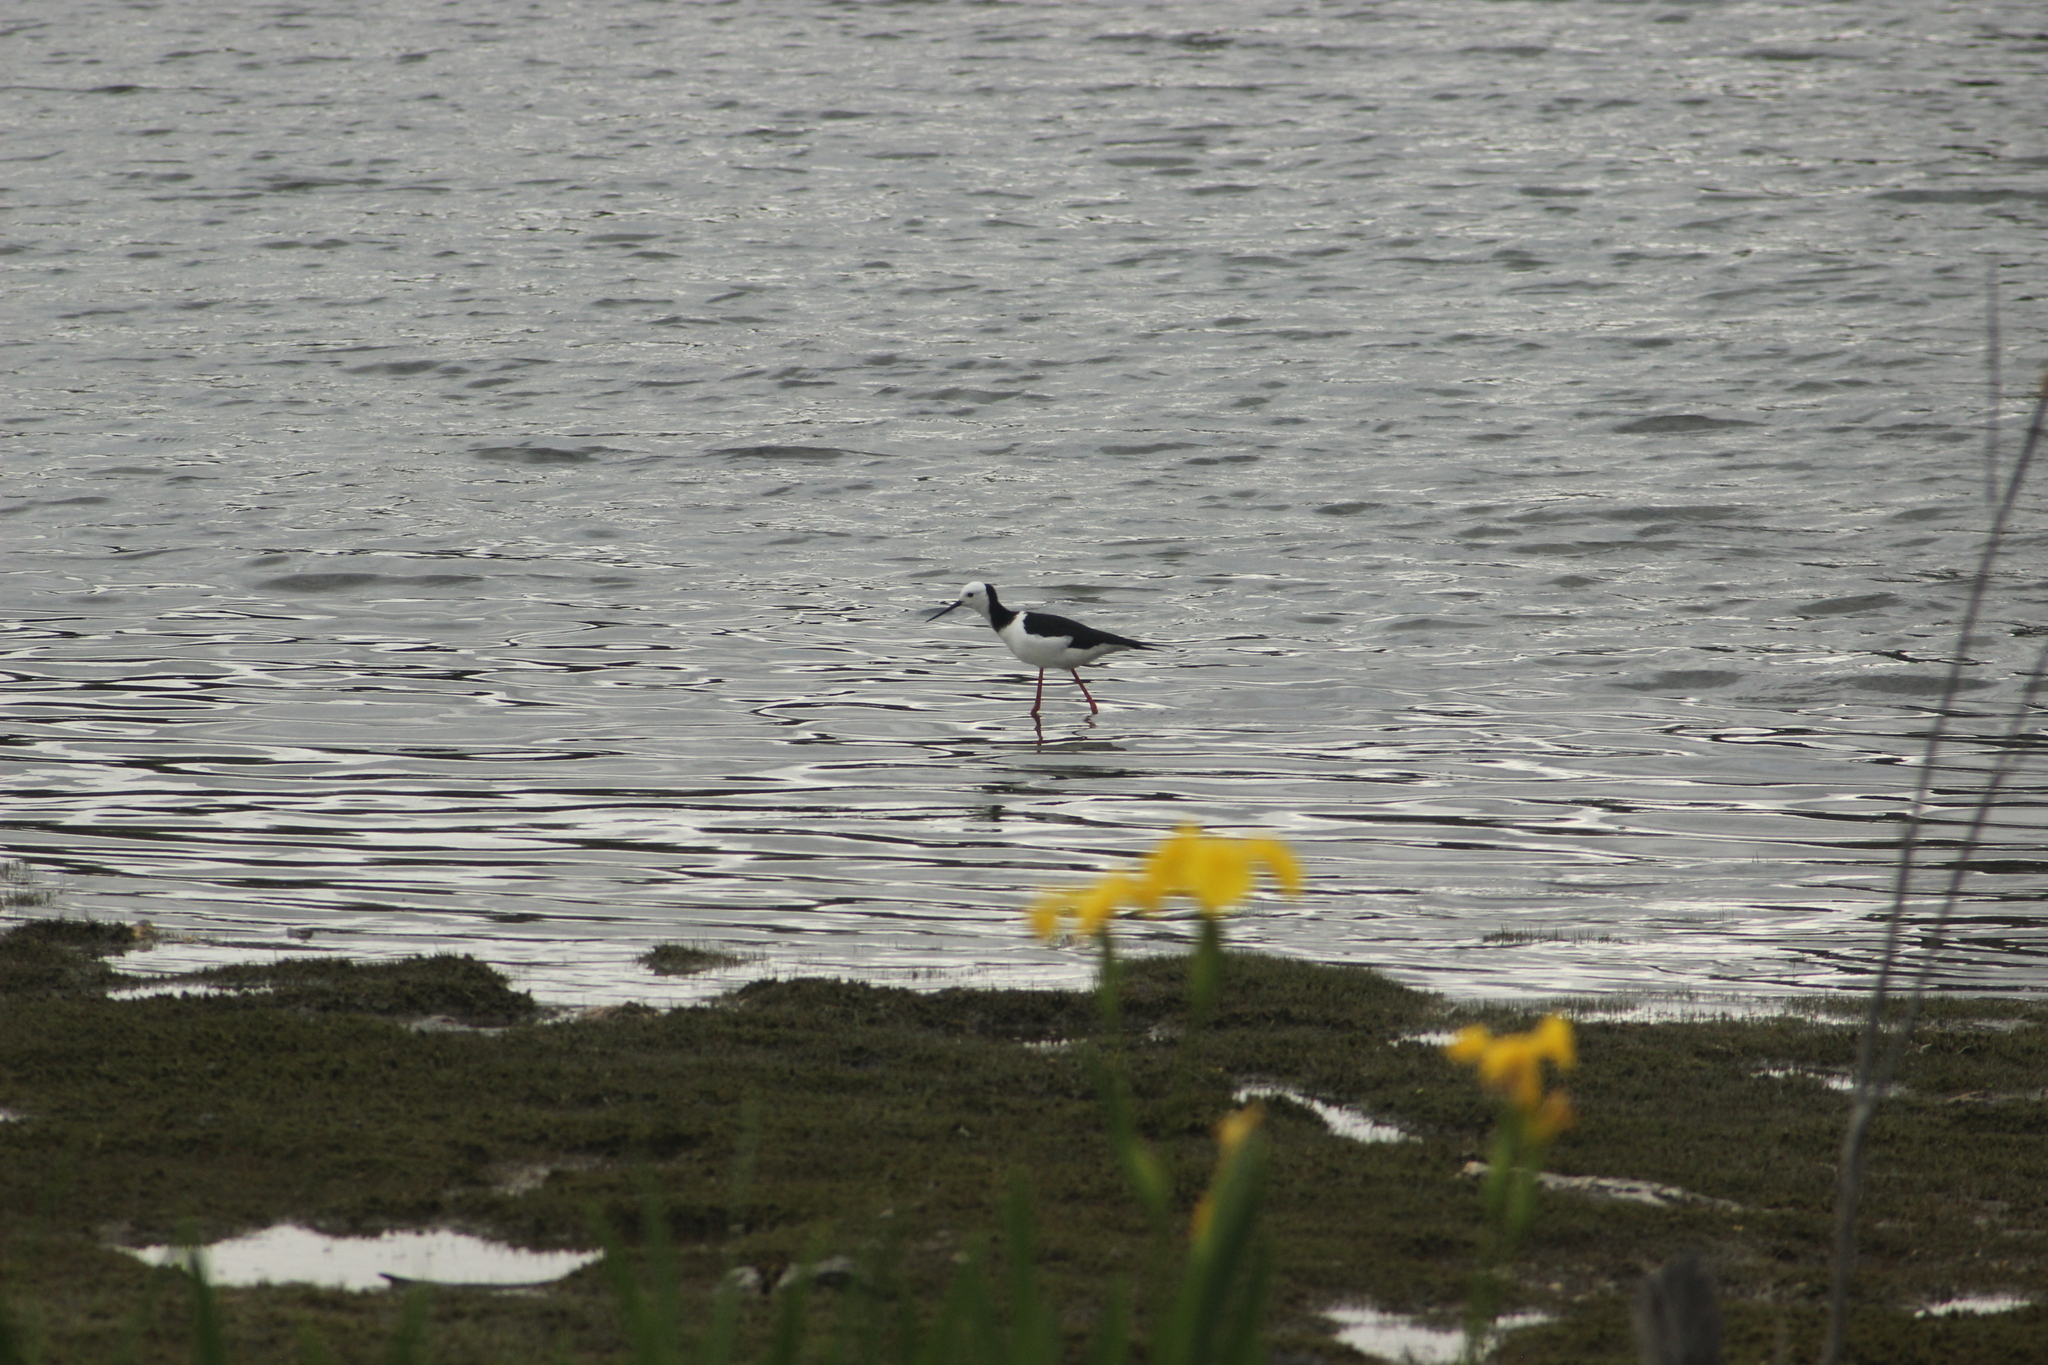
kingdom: Animalia
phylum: Chordata
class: Aves
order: Charadriiformes
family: Recurvirostridae
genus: Himantopus
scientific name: Himantopus leucocephalus
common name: White-headed stilt
